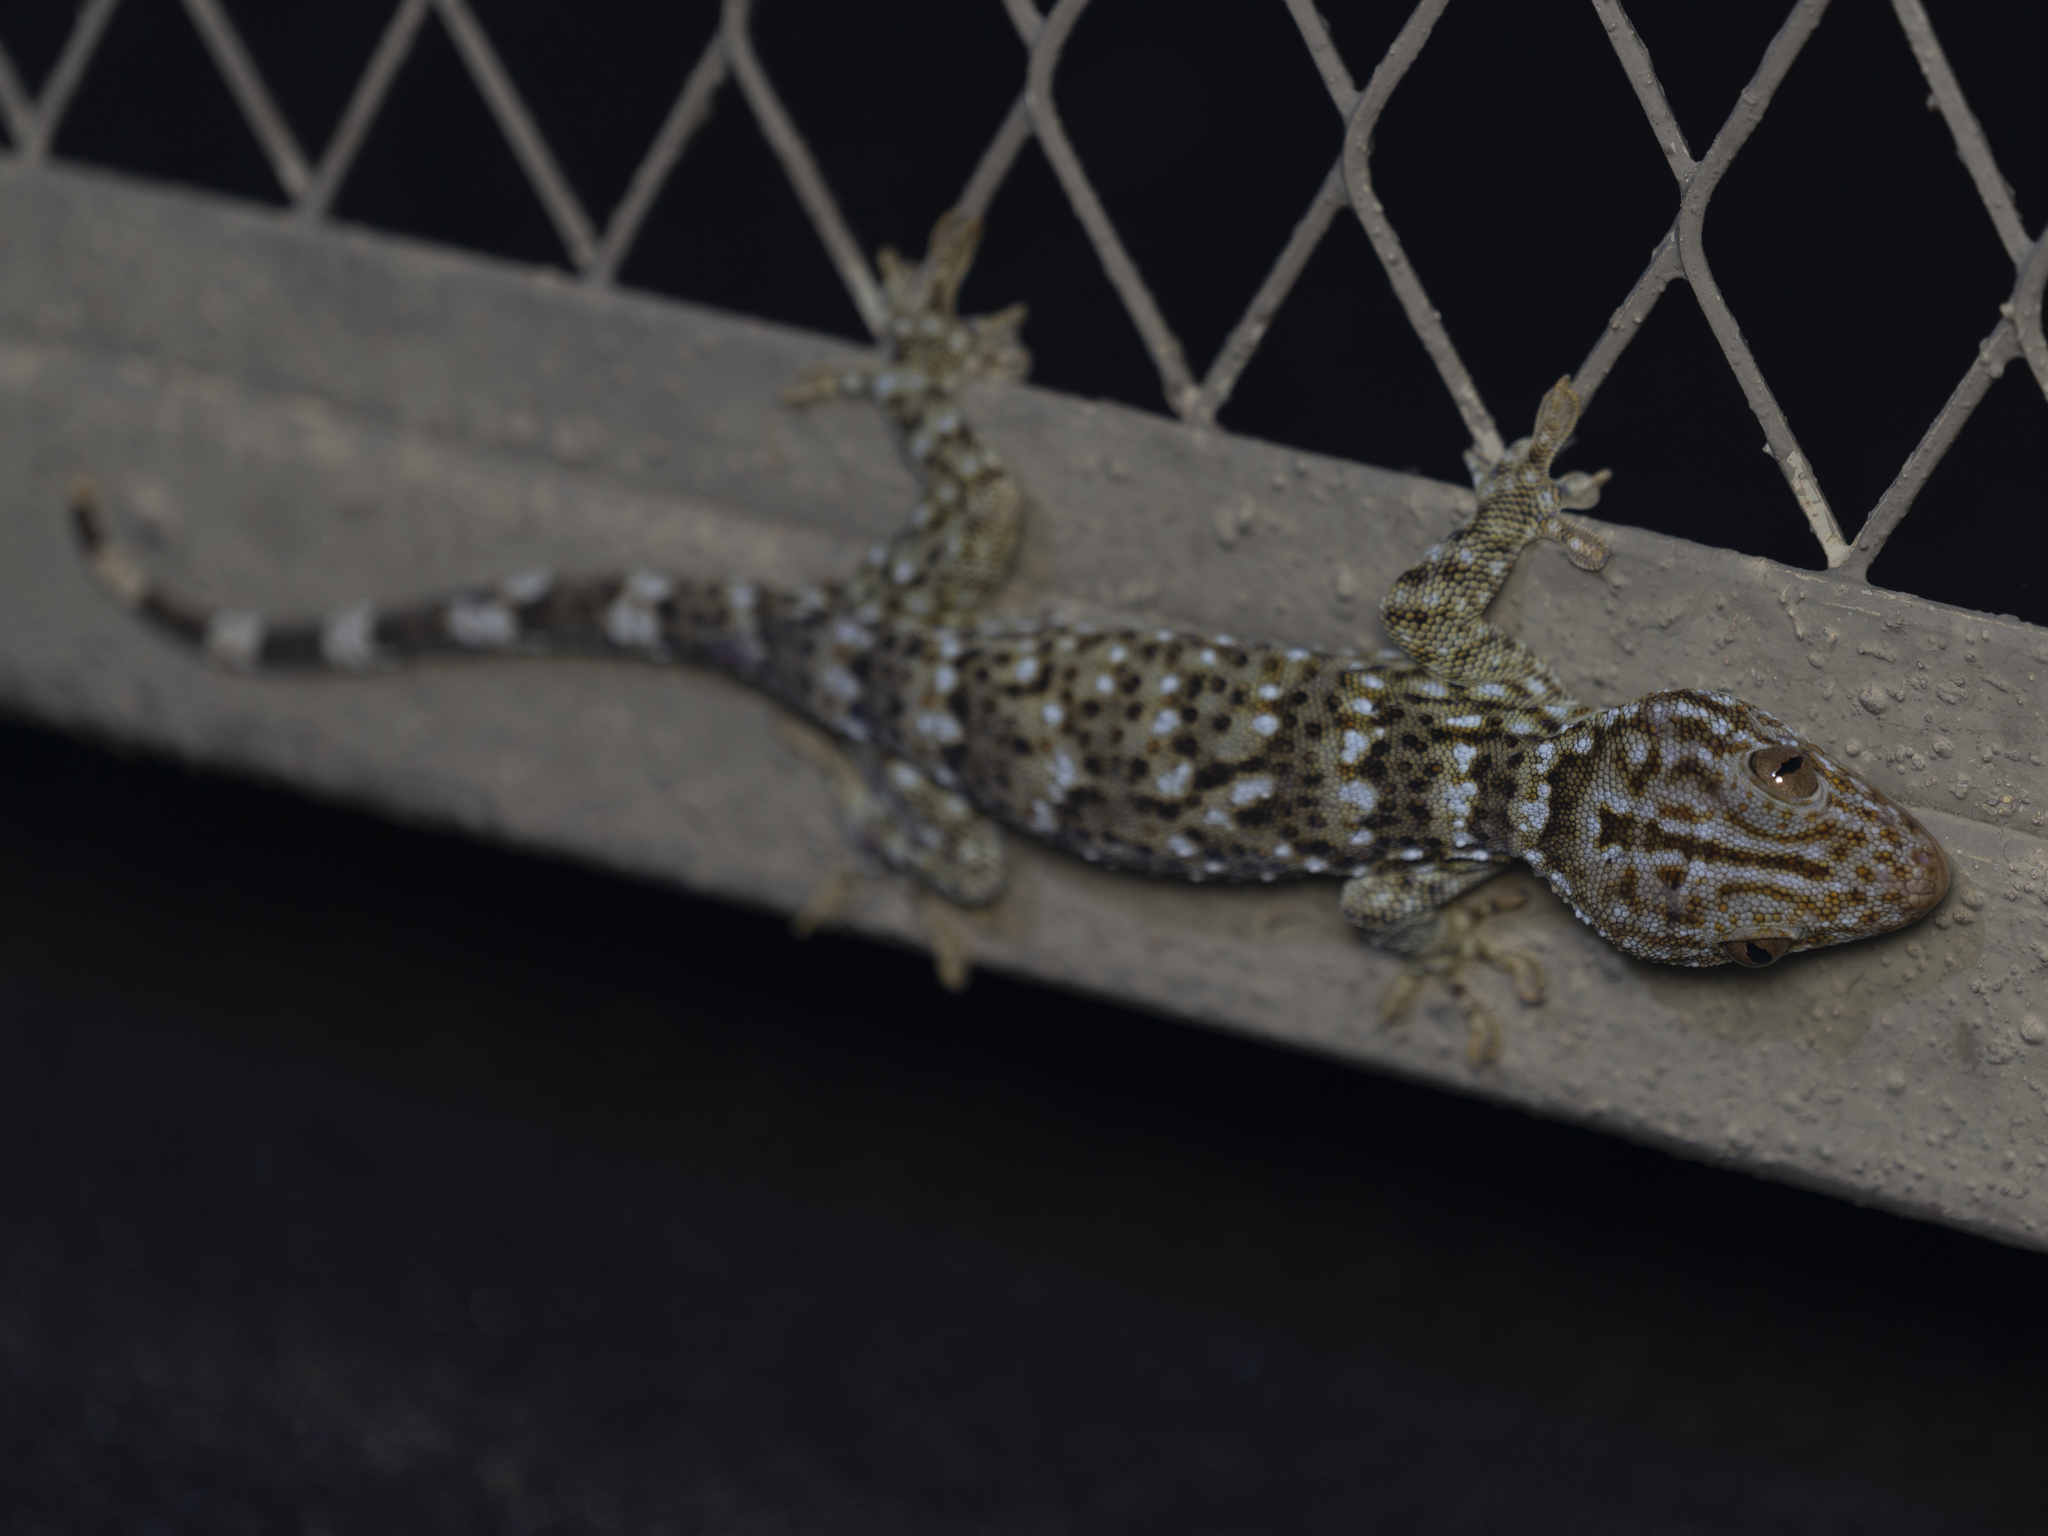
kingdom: Animalia
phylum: Chordata
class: Squamata
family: Gekkonidae
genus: Gekko
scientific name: Gekko reevesii
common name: Reeves’ tokay gecko
